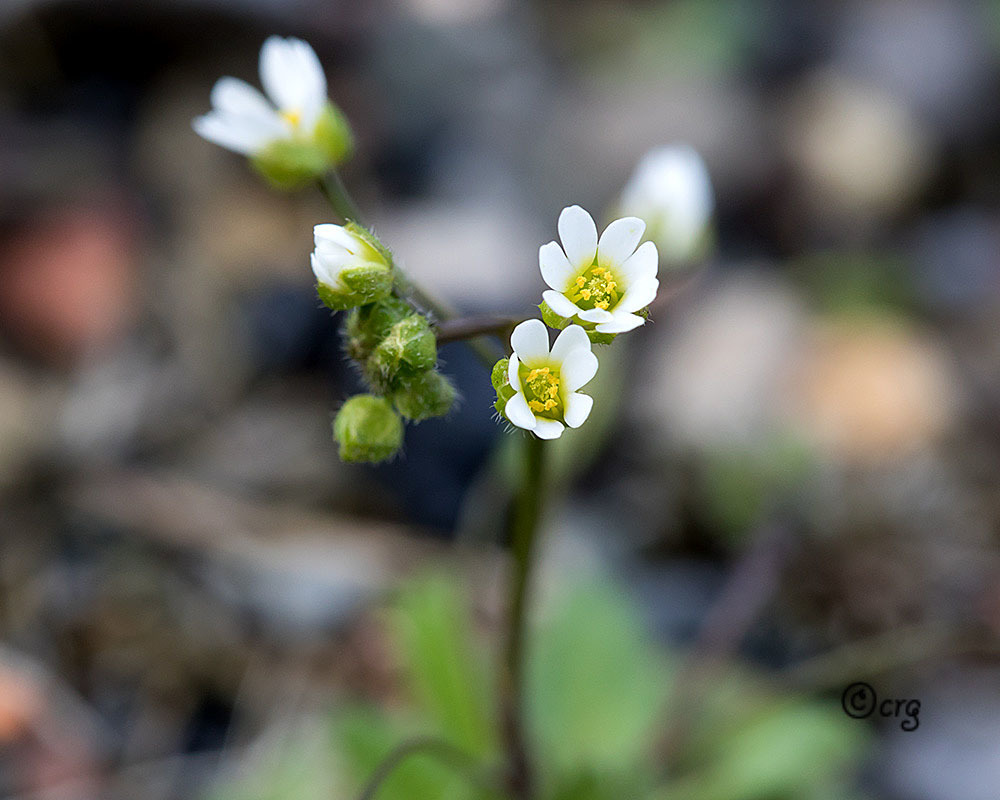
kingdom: Plantae
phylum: Tracheophyta
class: Magnoliopsida
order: Brassicales
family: Brassicaceae
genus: Draba
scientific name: Draba verna
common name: Spring draba
